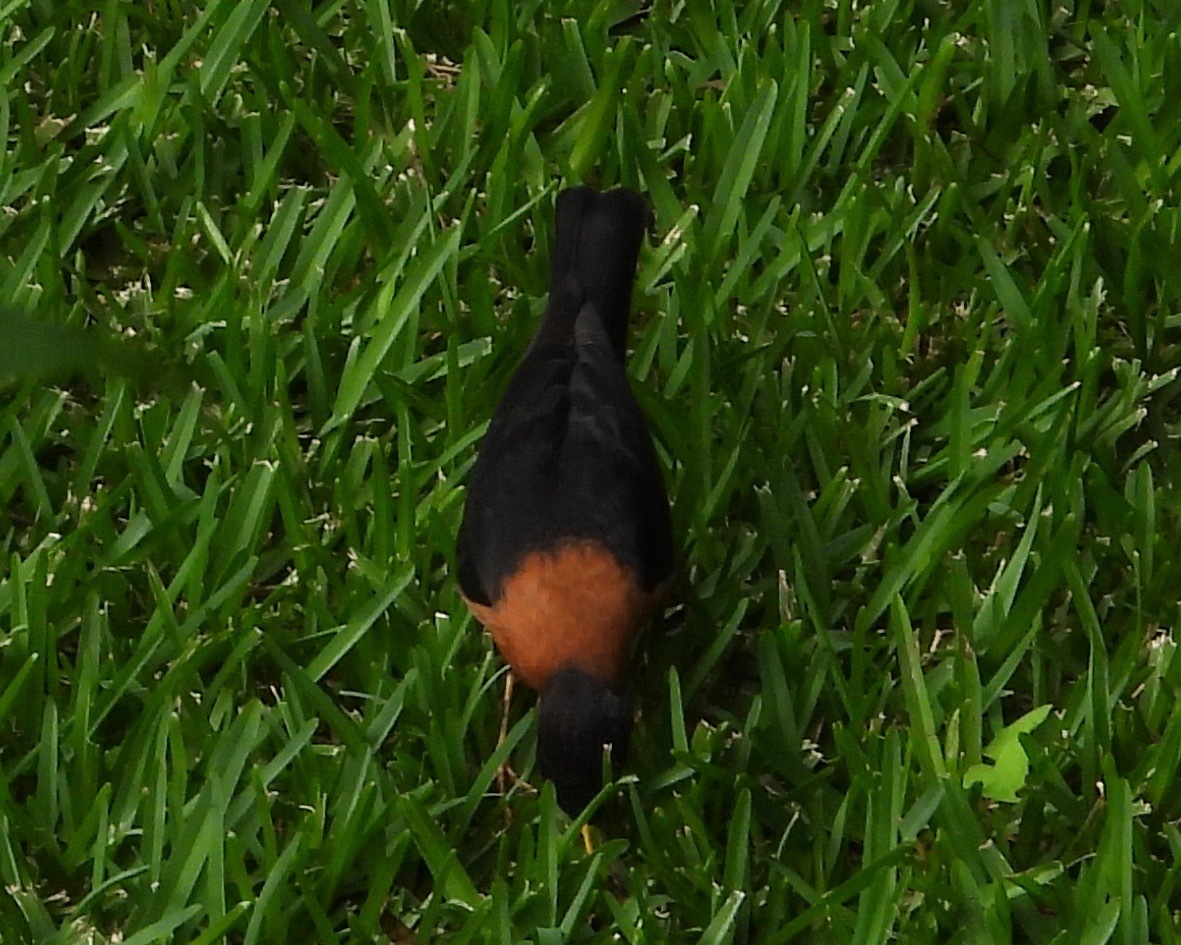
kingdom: Animalia
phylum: Chordata
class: Aves
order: Passeriformes
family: Turdidae
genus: Turdus
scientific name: Turdus rufitorques
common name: Rufous-collared thrush
